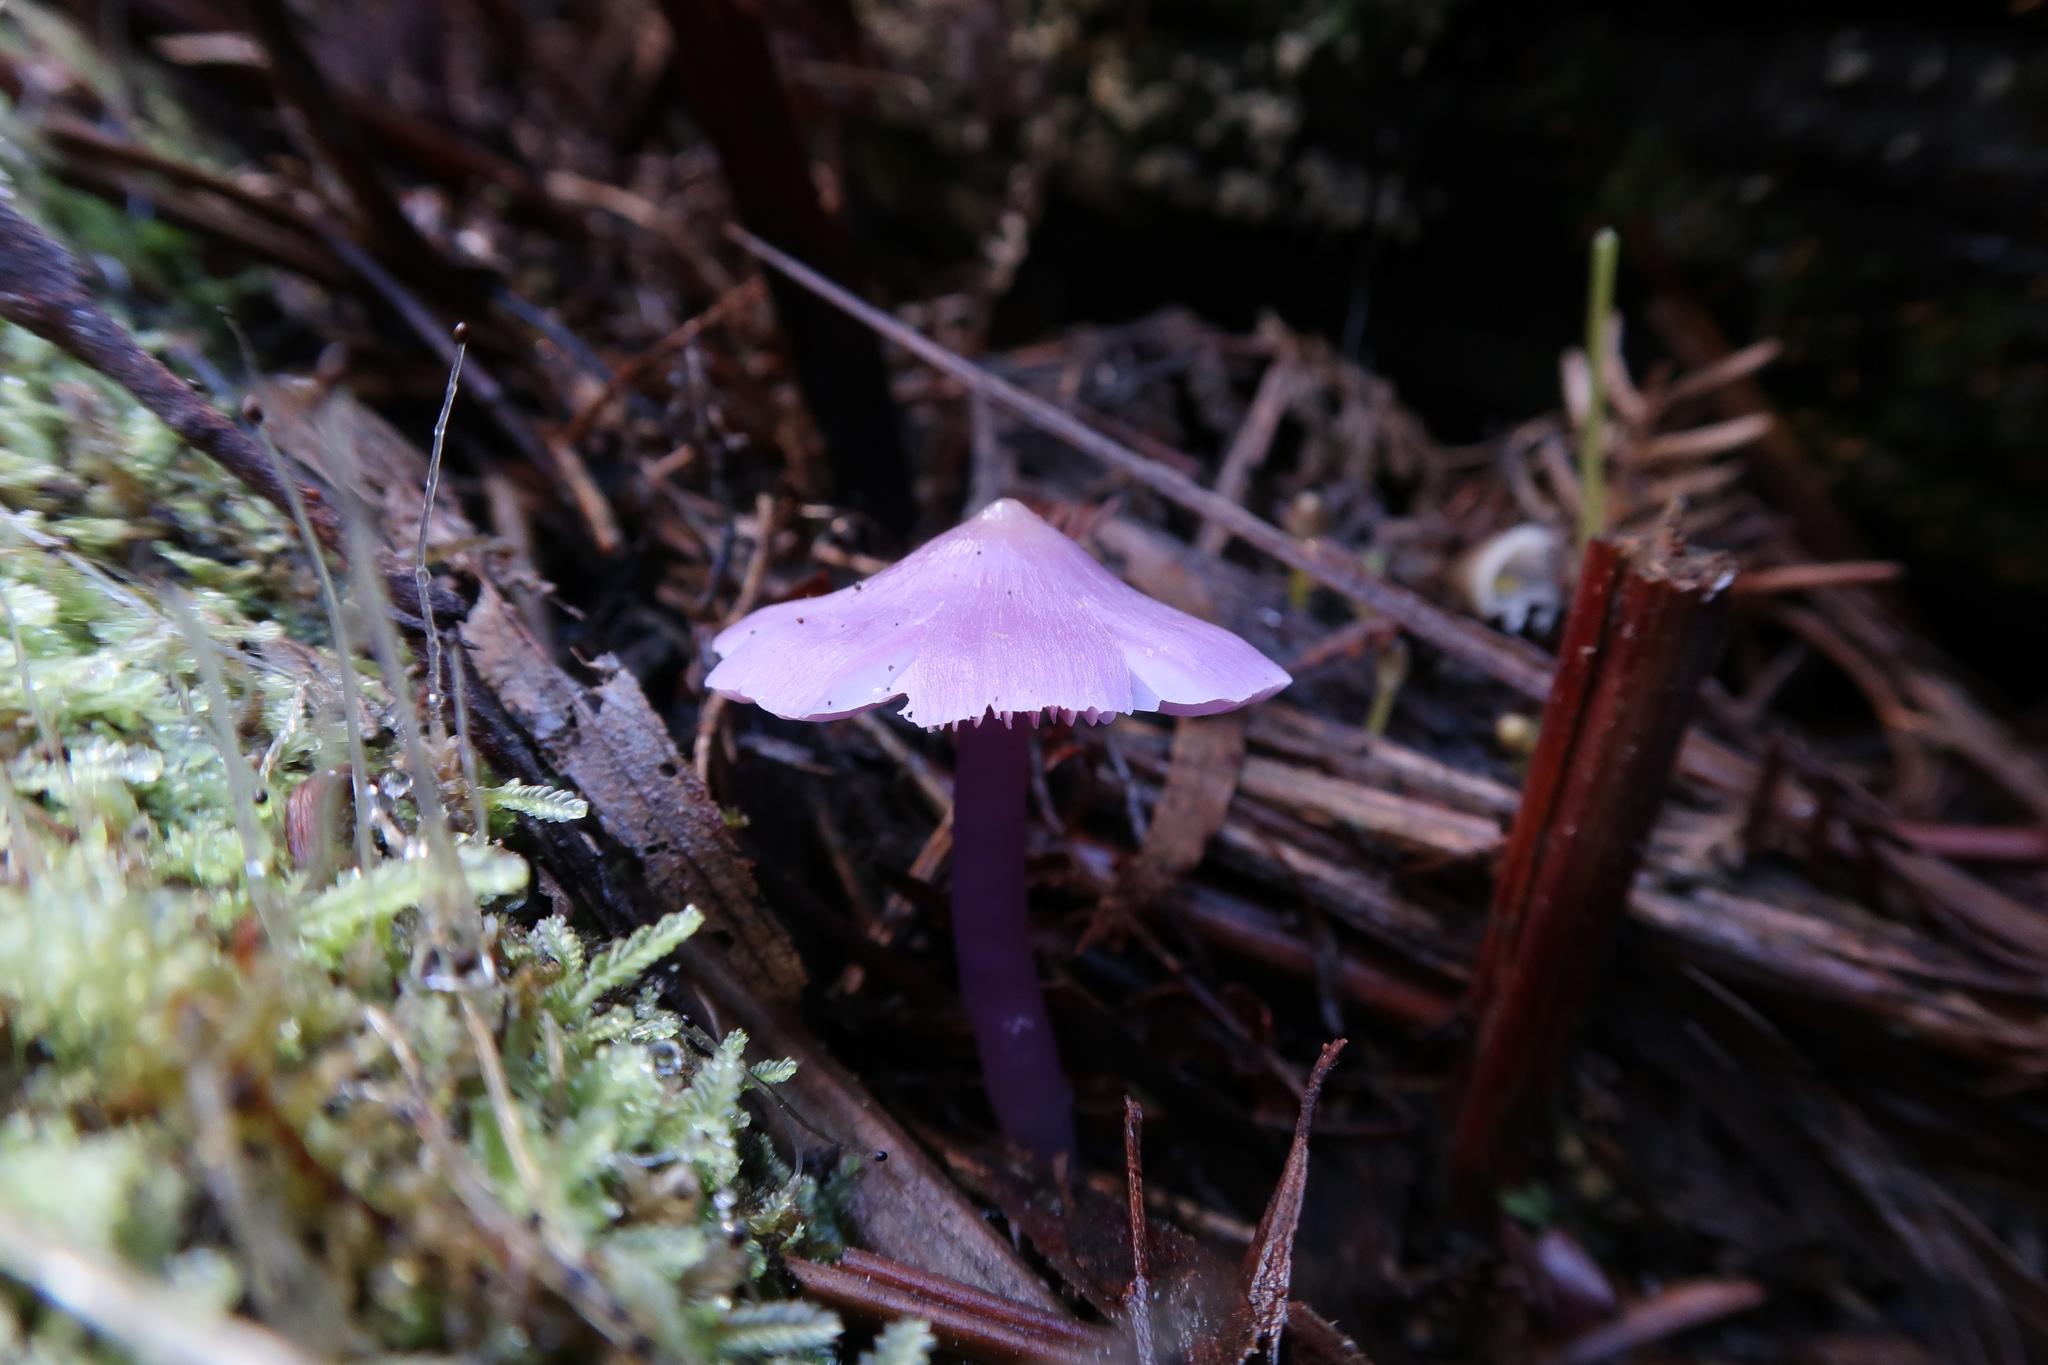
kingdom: Fungi
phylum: Basidiomycota
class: Agaricomycetes
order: Agaricales
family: Hygrophoraceae
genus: Porpolomopsis
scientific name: Porpolomopsis lewelliniae
